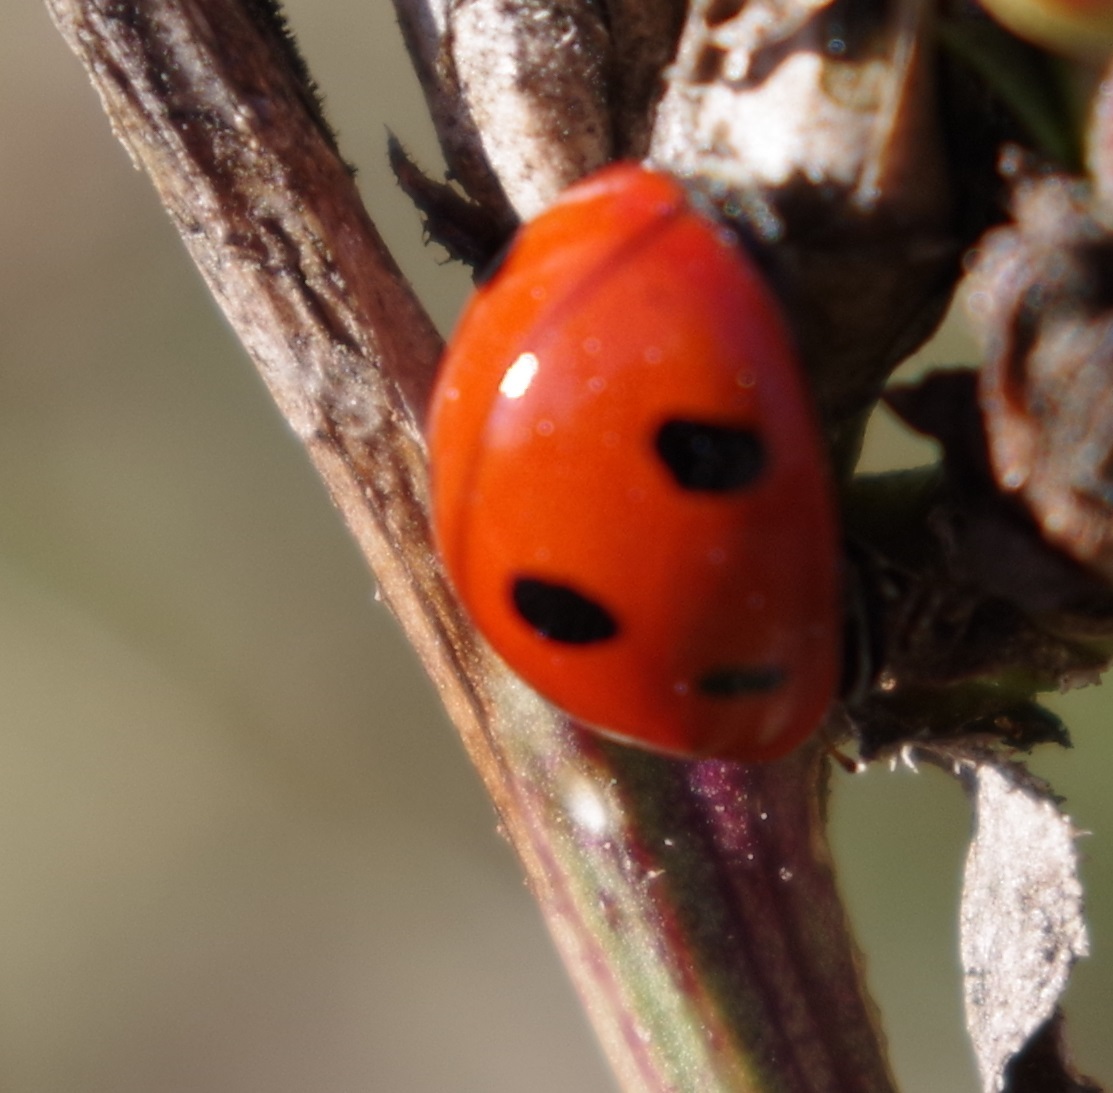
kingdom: Animalia
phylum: Arthropoda
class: Insecta
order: Coleoptera
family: Coccinellidae
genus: Coccinella
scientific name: Coccinella septempunctata
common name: Sevenspotted lady beetle
